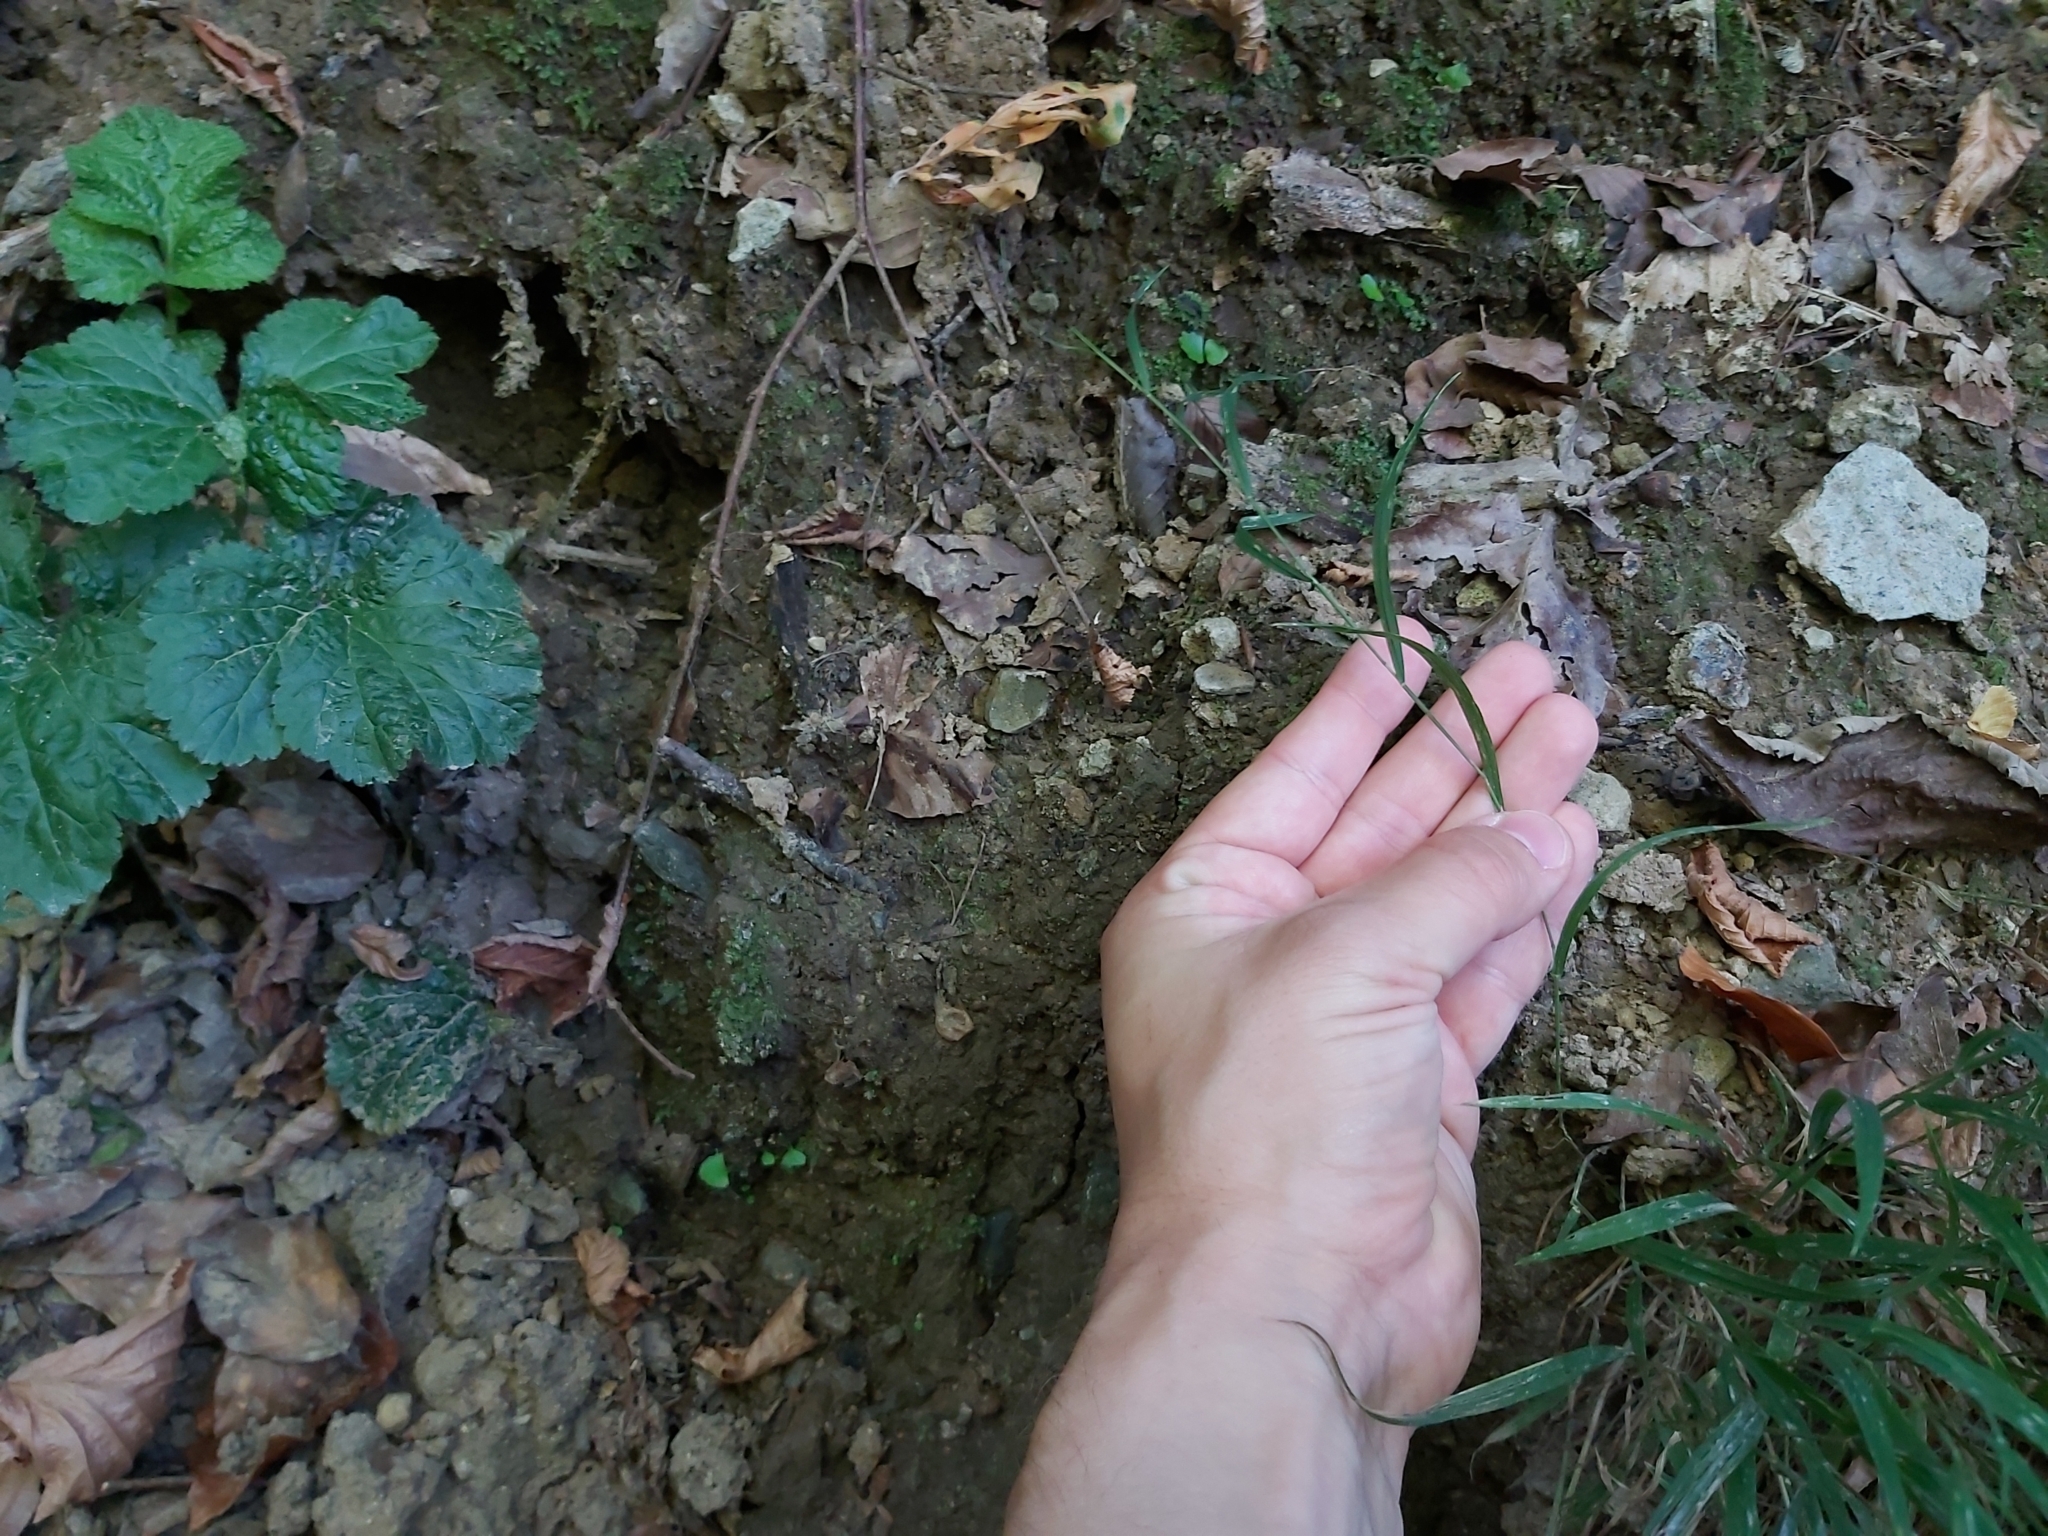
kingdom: Plantae
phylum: Tracheophyta
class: Liliopsida
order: Poales
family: Poaceae
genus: Melica
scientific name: Melica uniflora
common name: Wood melick
